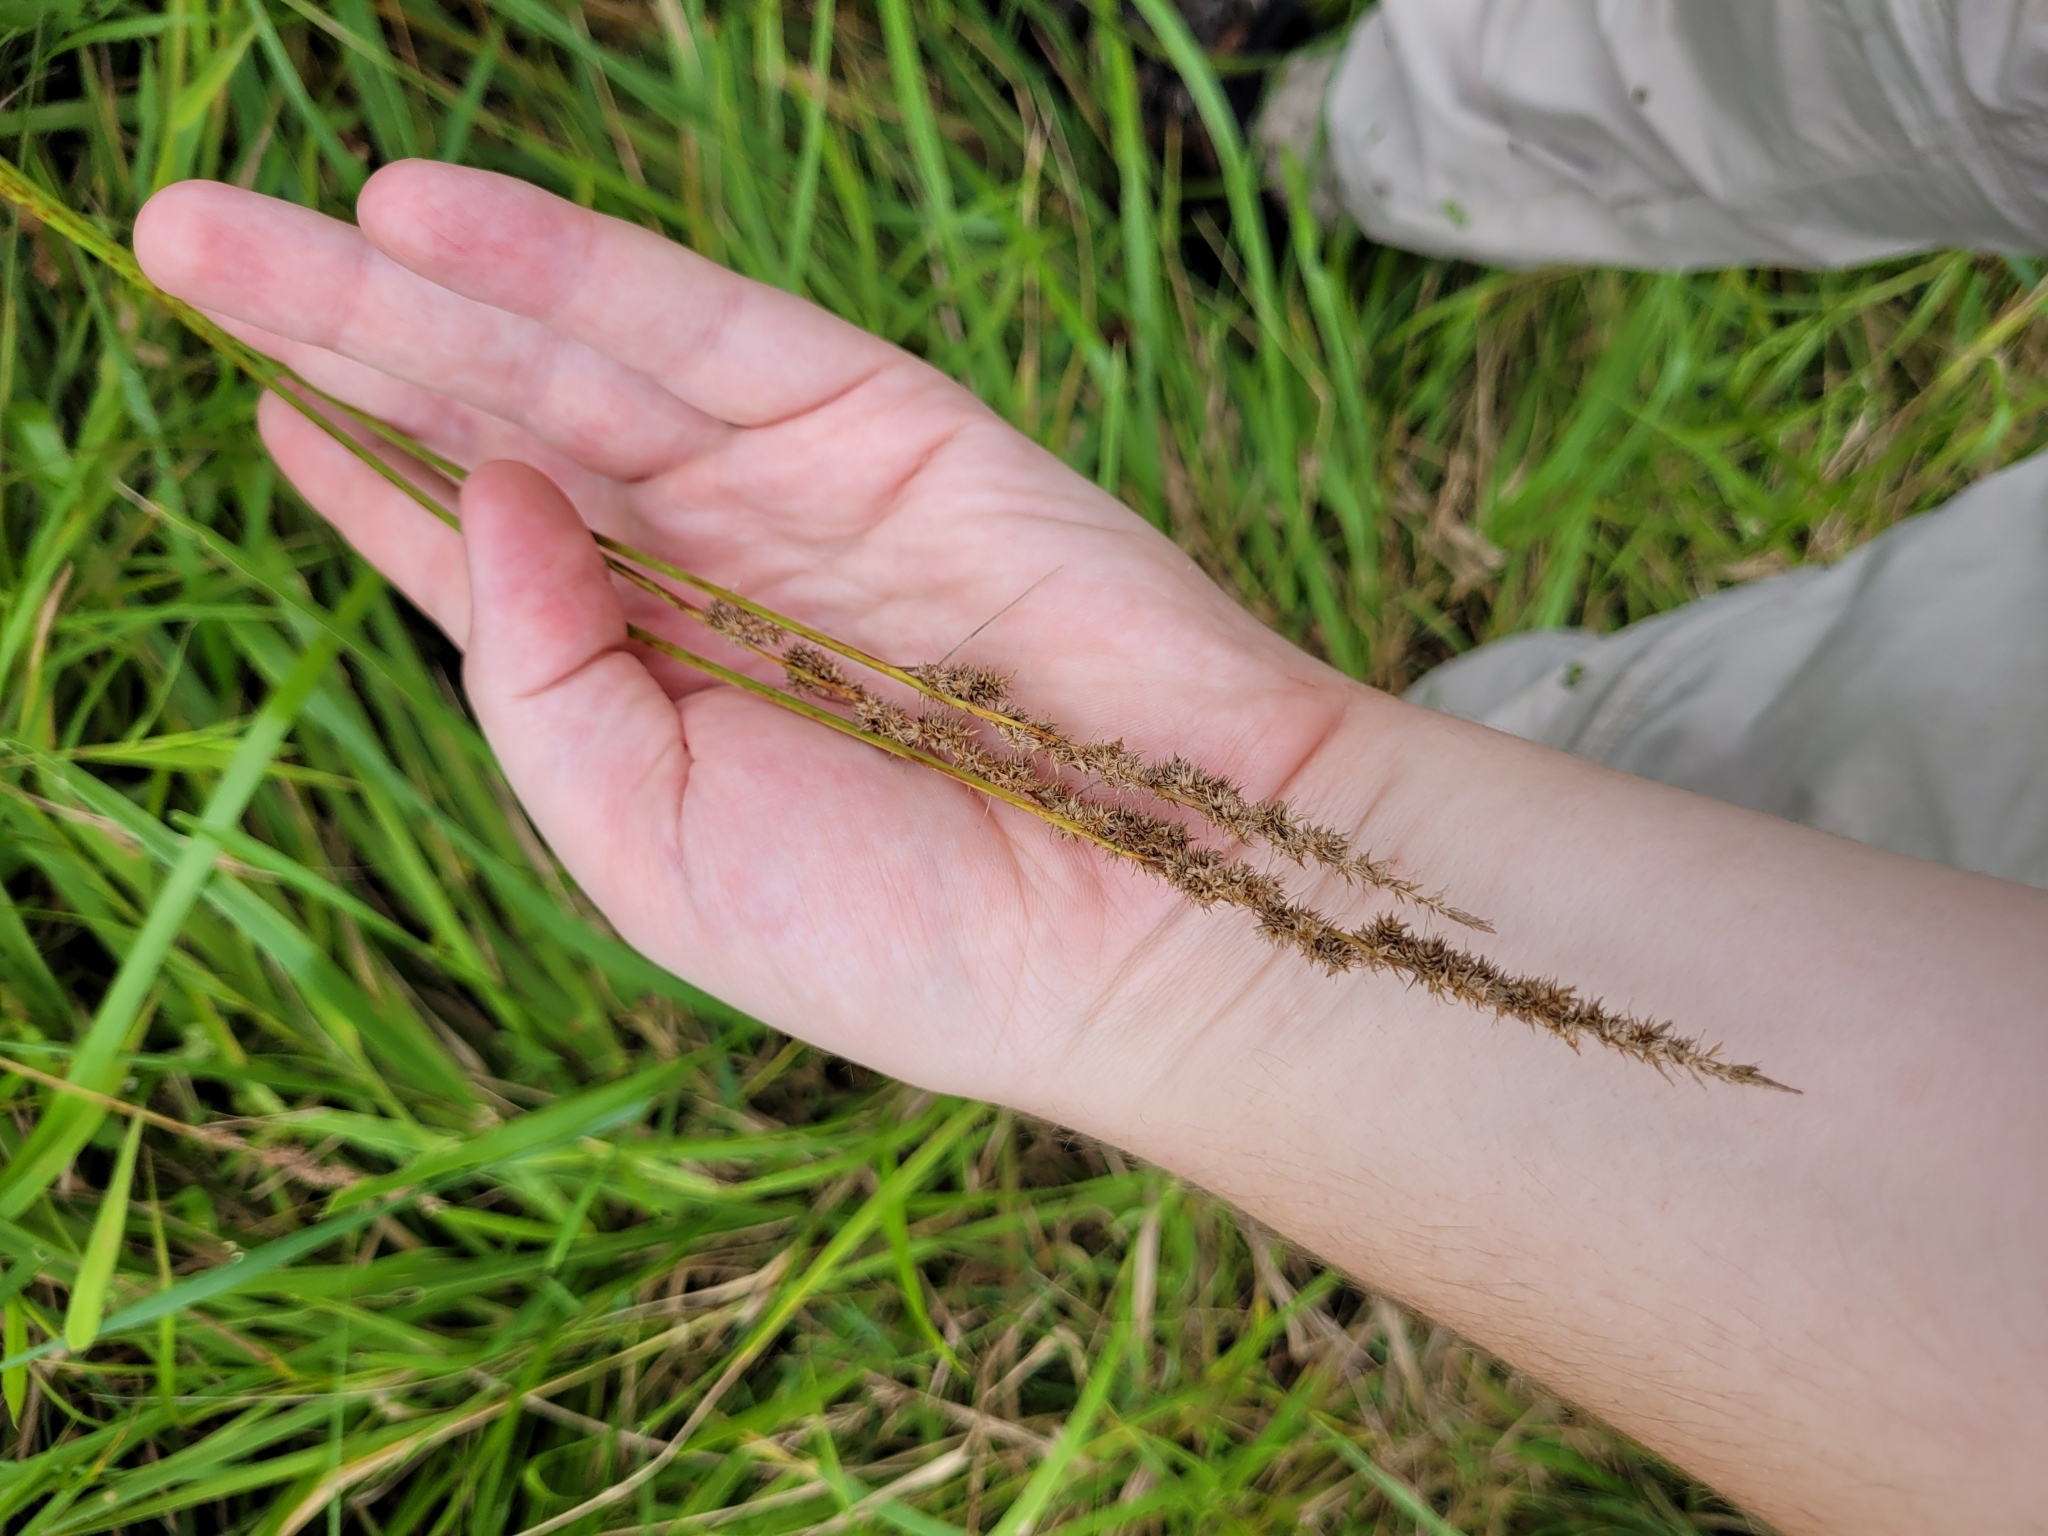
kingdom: Plantae
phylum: Tracheophyta
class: Liliopsida
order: Poales
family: Cyperaceae
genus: Carex
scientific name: Carex vulpinoidea
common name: American fox-sedge
